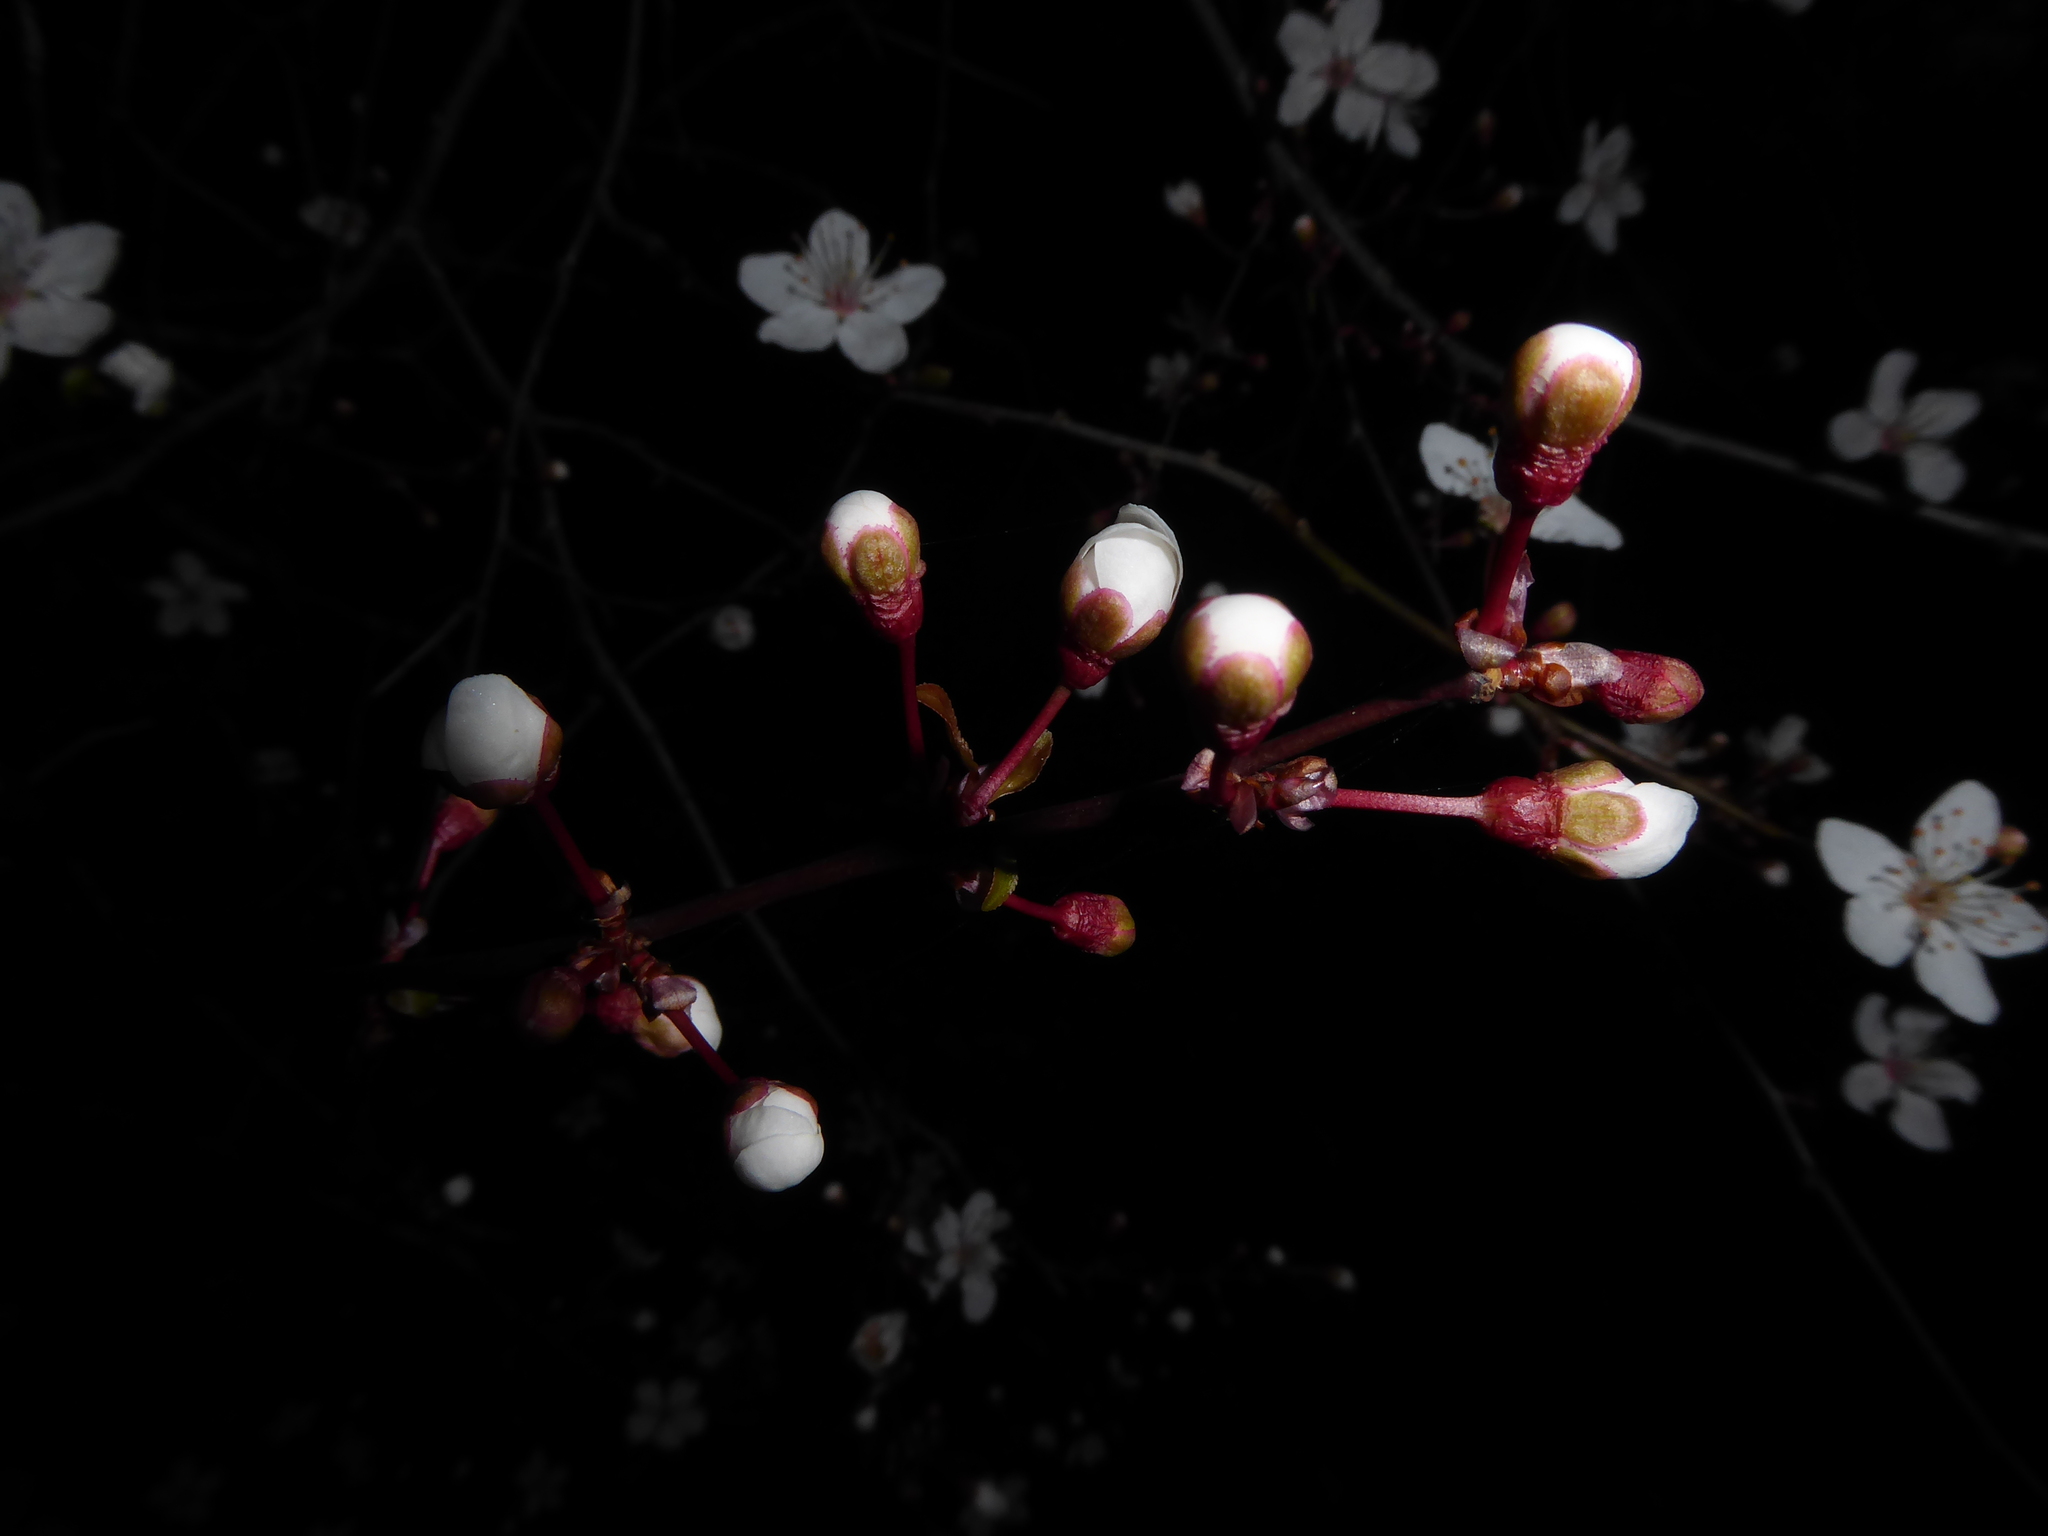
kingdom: Plantae
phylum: Tracheophyta
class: Magnoliopsida
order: Rosales
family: Rosaceae
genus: Prunus
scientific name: Prunus cerasifera
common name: Cherry plum
